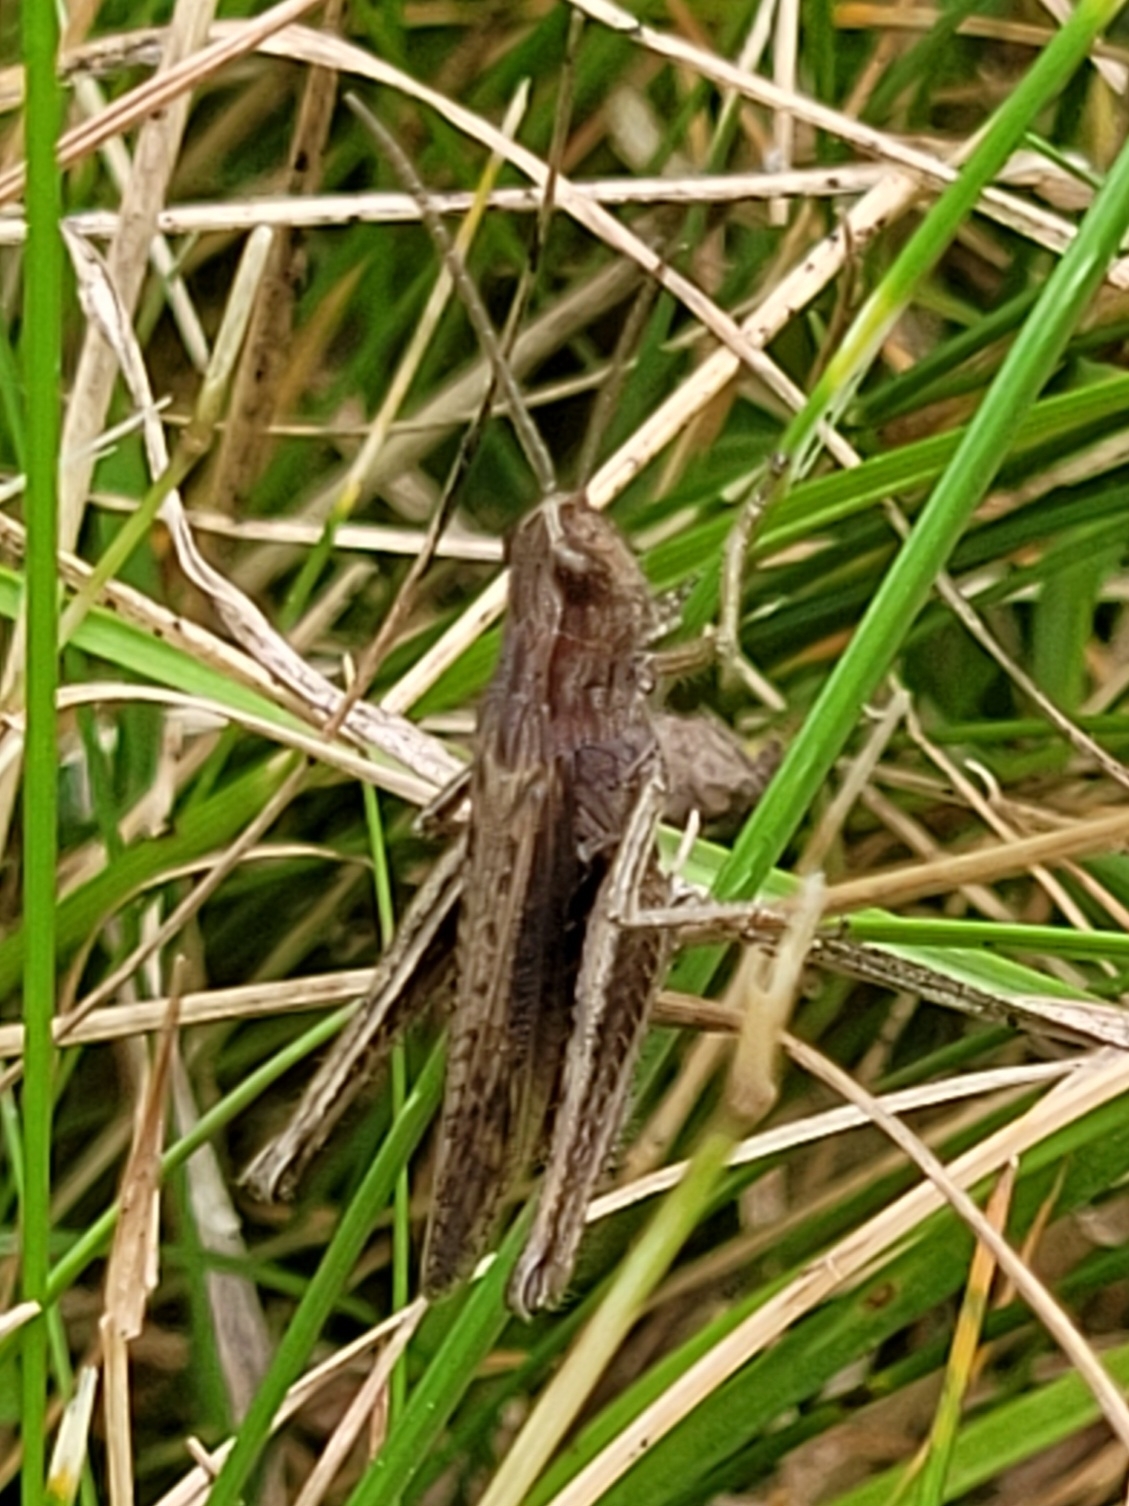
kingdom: Animalia
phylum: Arthropoda
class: Insecta
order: Orthoptera
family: Acrididae
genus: Chorthippus
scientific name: Chorthippus dorsatus
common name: Steppe grasshopper
